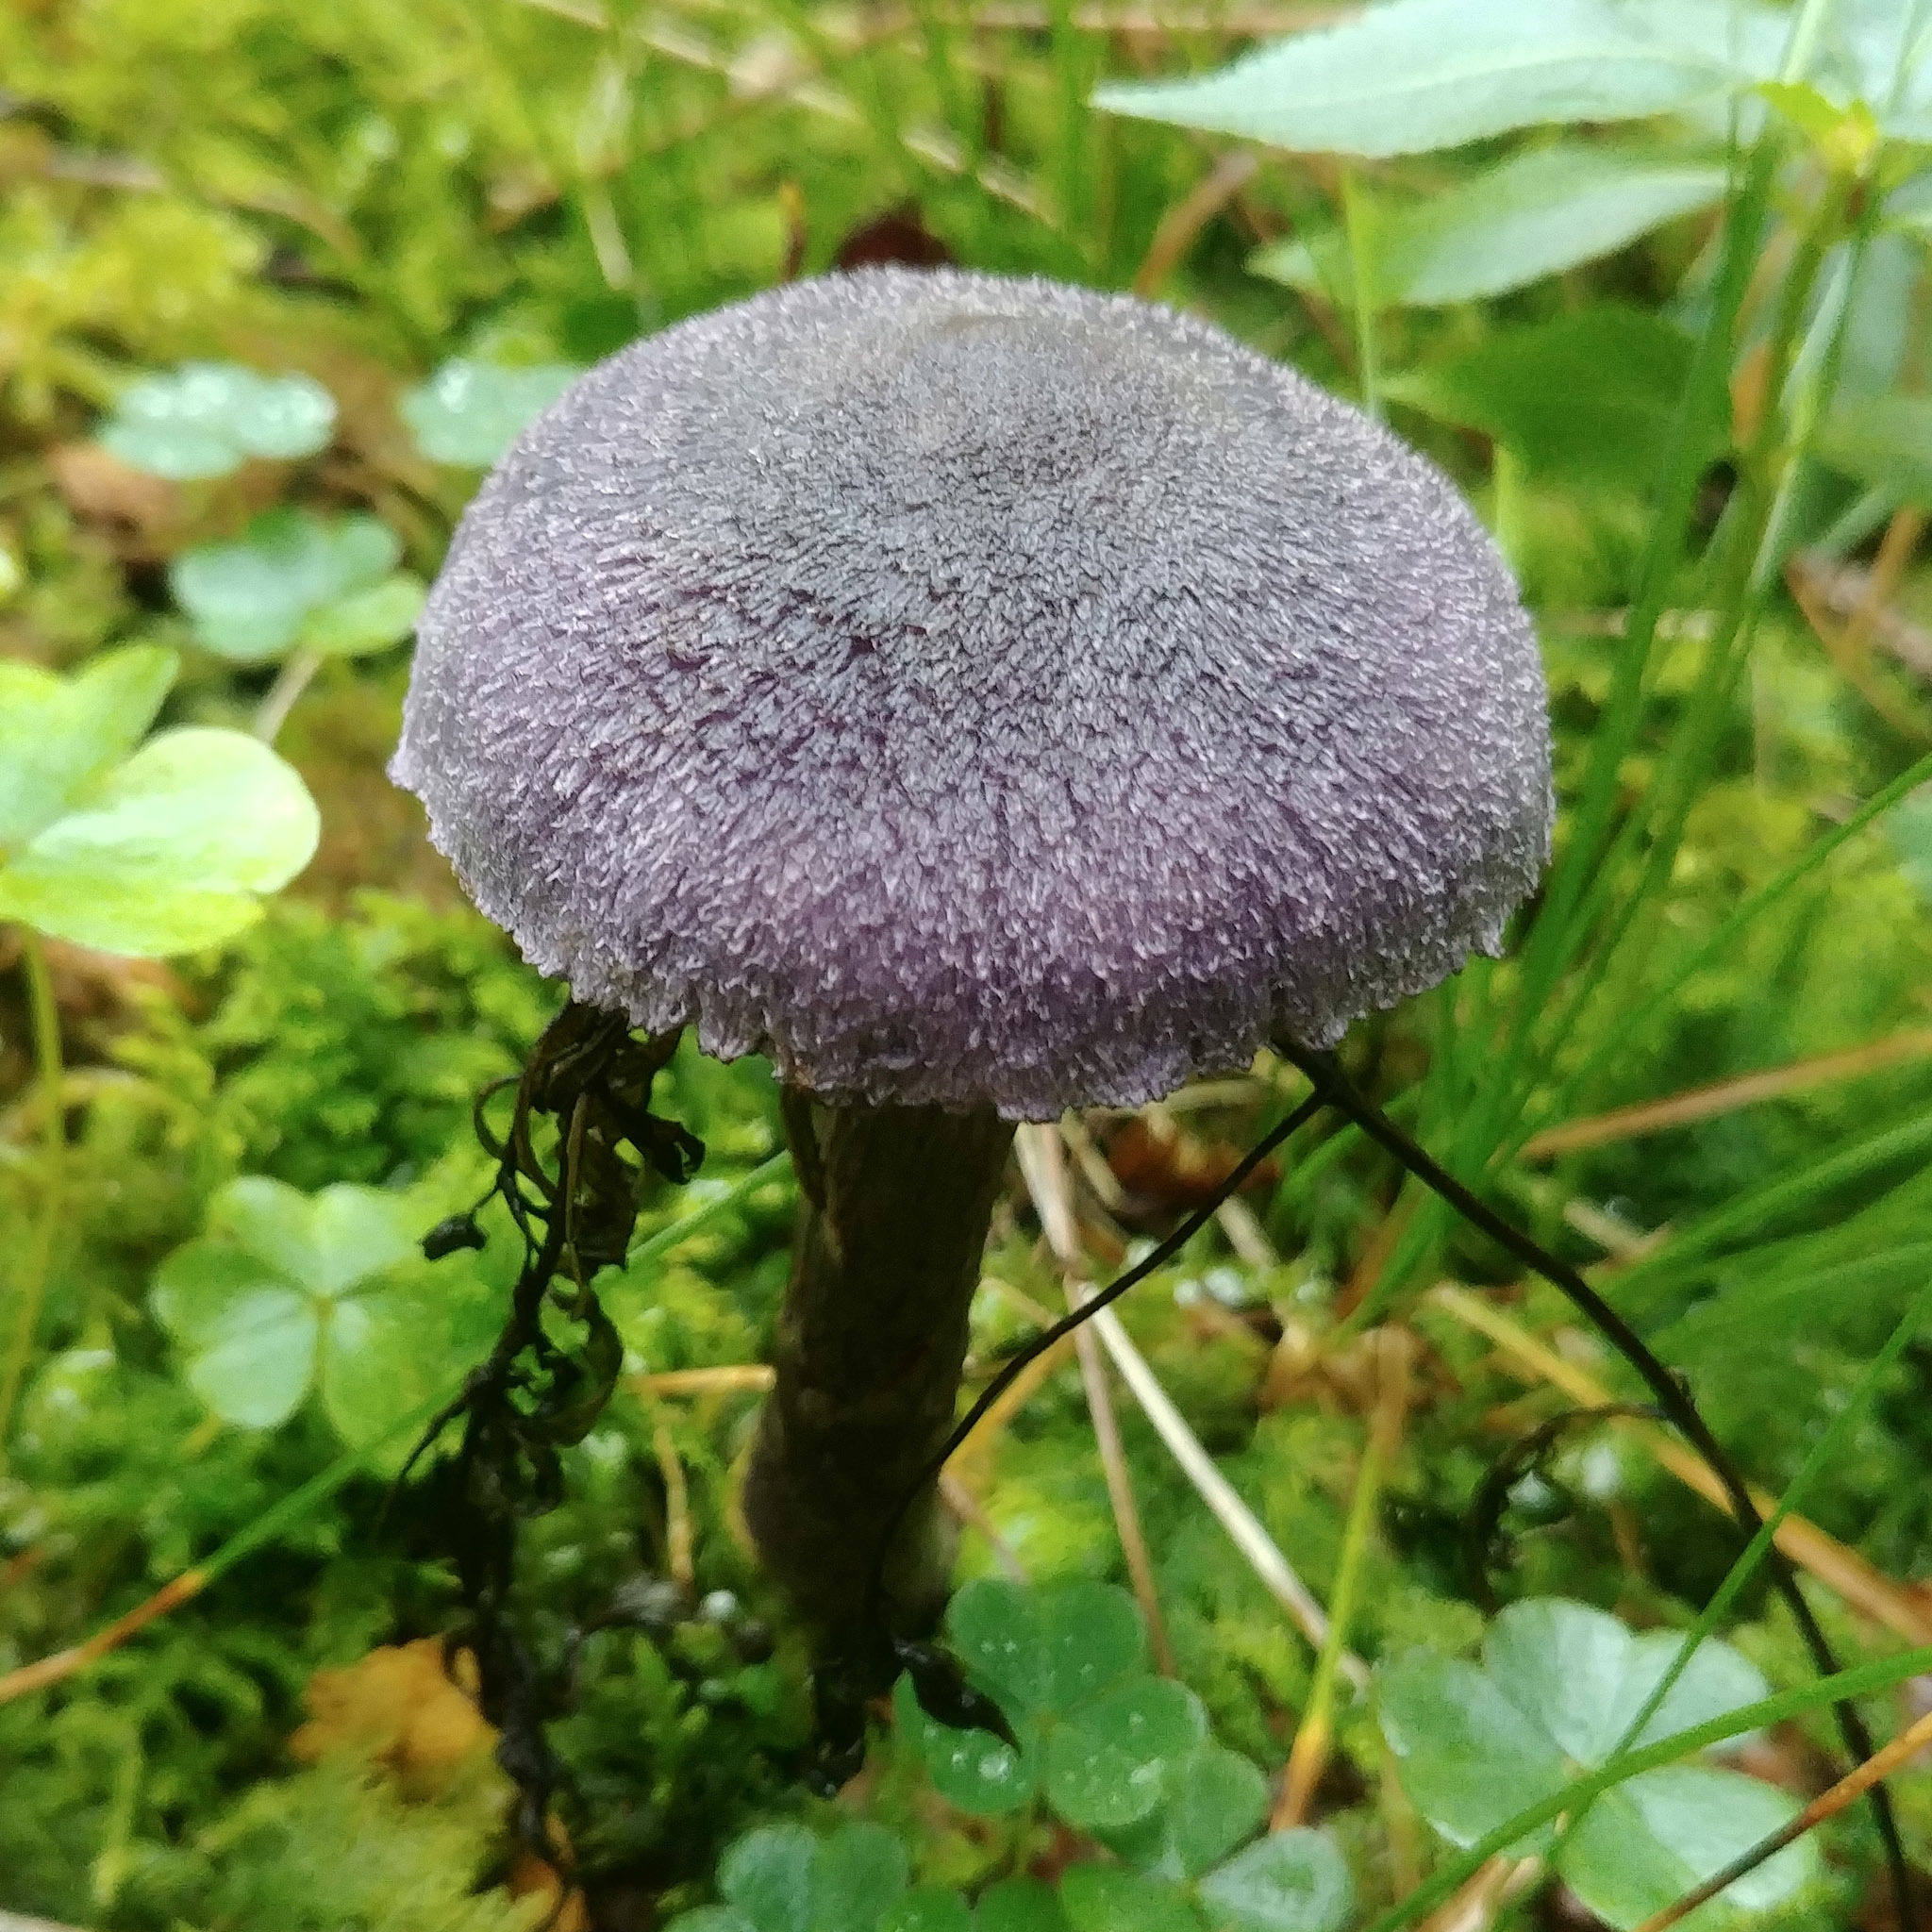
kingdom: Fungi
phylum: Basidiomycota
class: Agaricomycetes
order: Agaricales
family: Cortinariaceae
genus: Cortinarius
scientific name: Cortinarius violaceus
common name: Violet webcap
